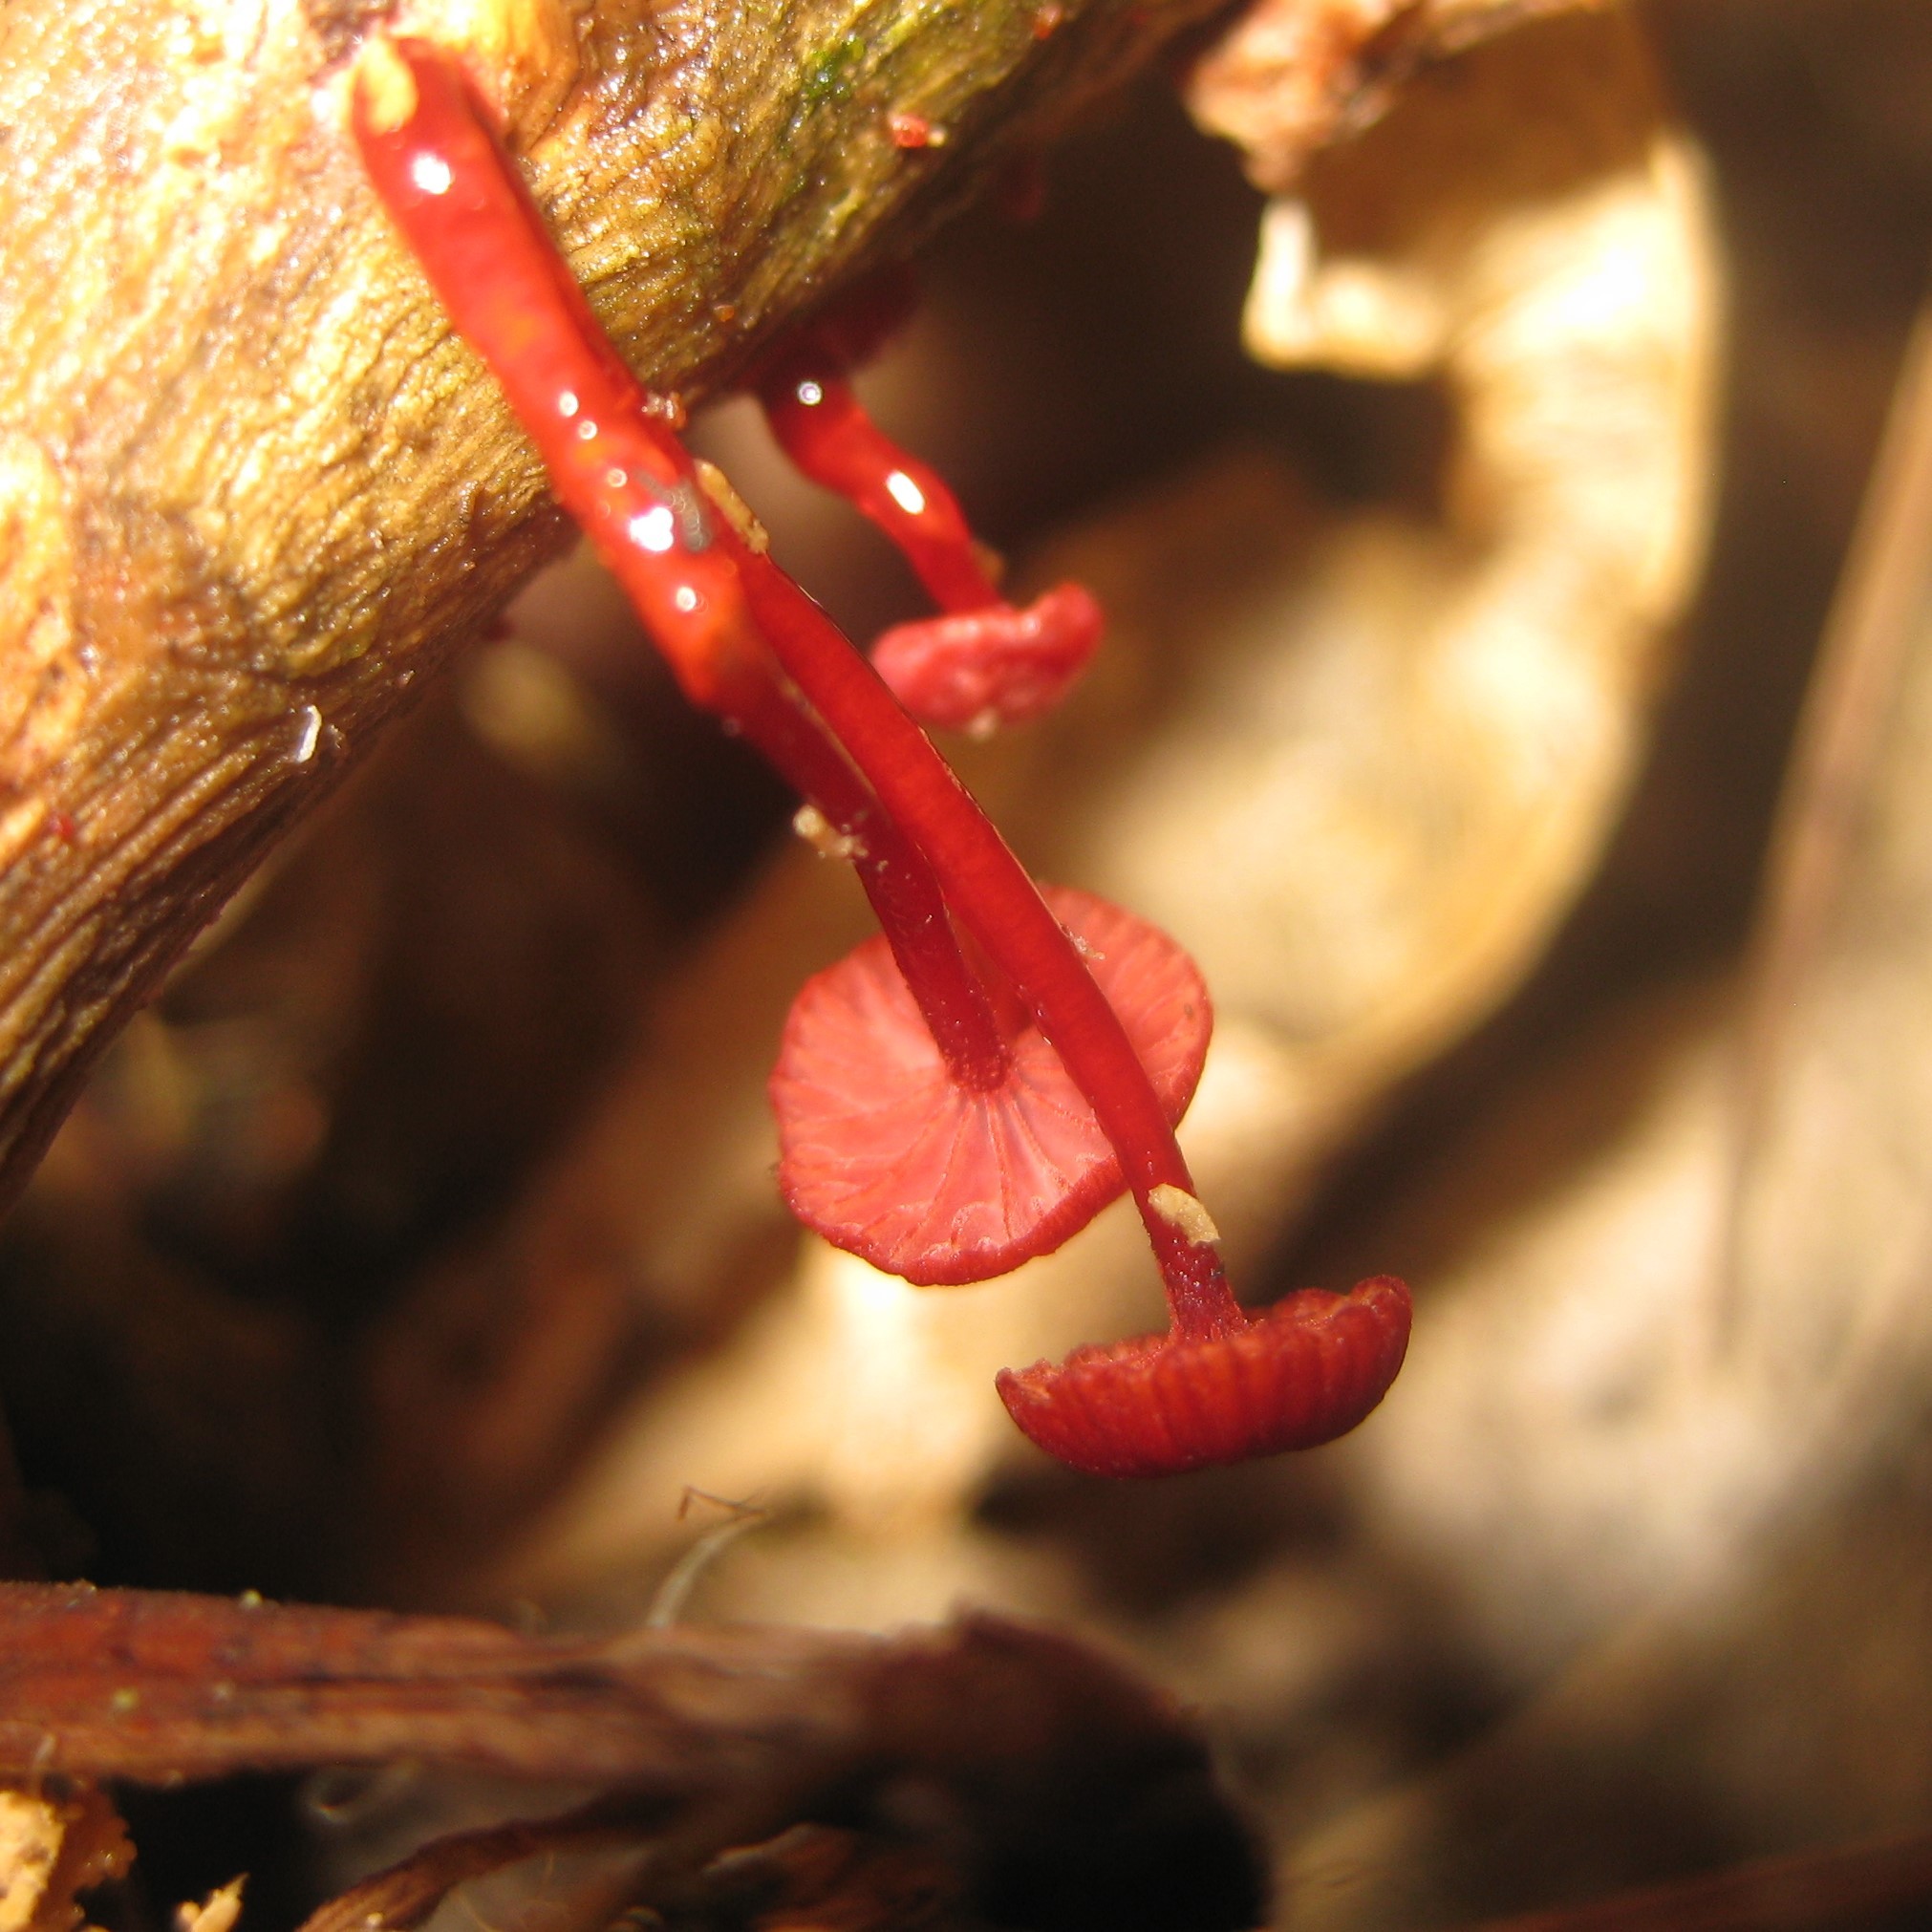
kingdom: Fungi
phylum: Basidiomycota
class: Agaricomycetes
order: Agaricales
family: Mycenaceae
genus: Cruentomycena
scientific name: Cruentomycena viscidocruenta
